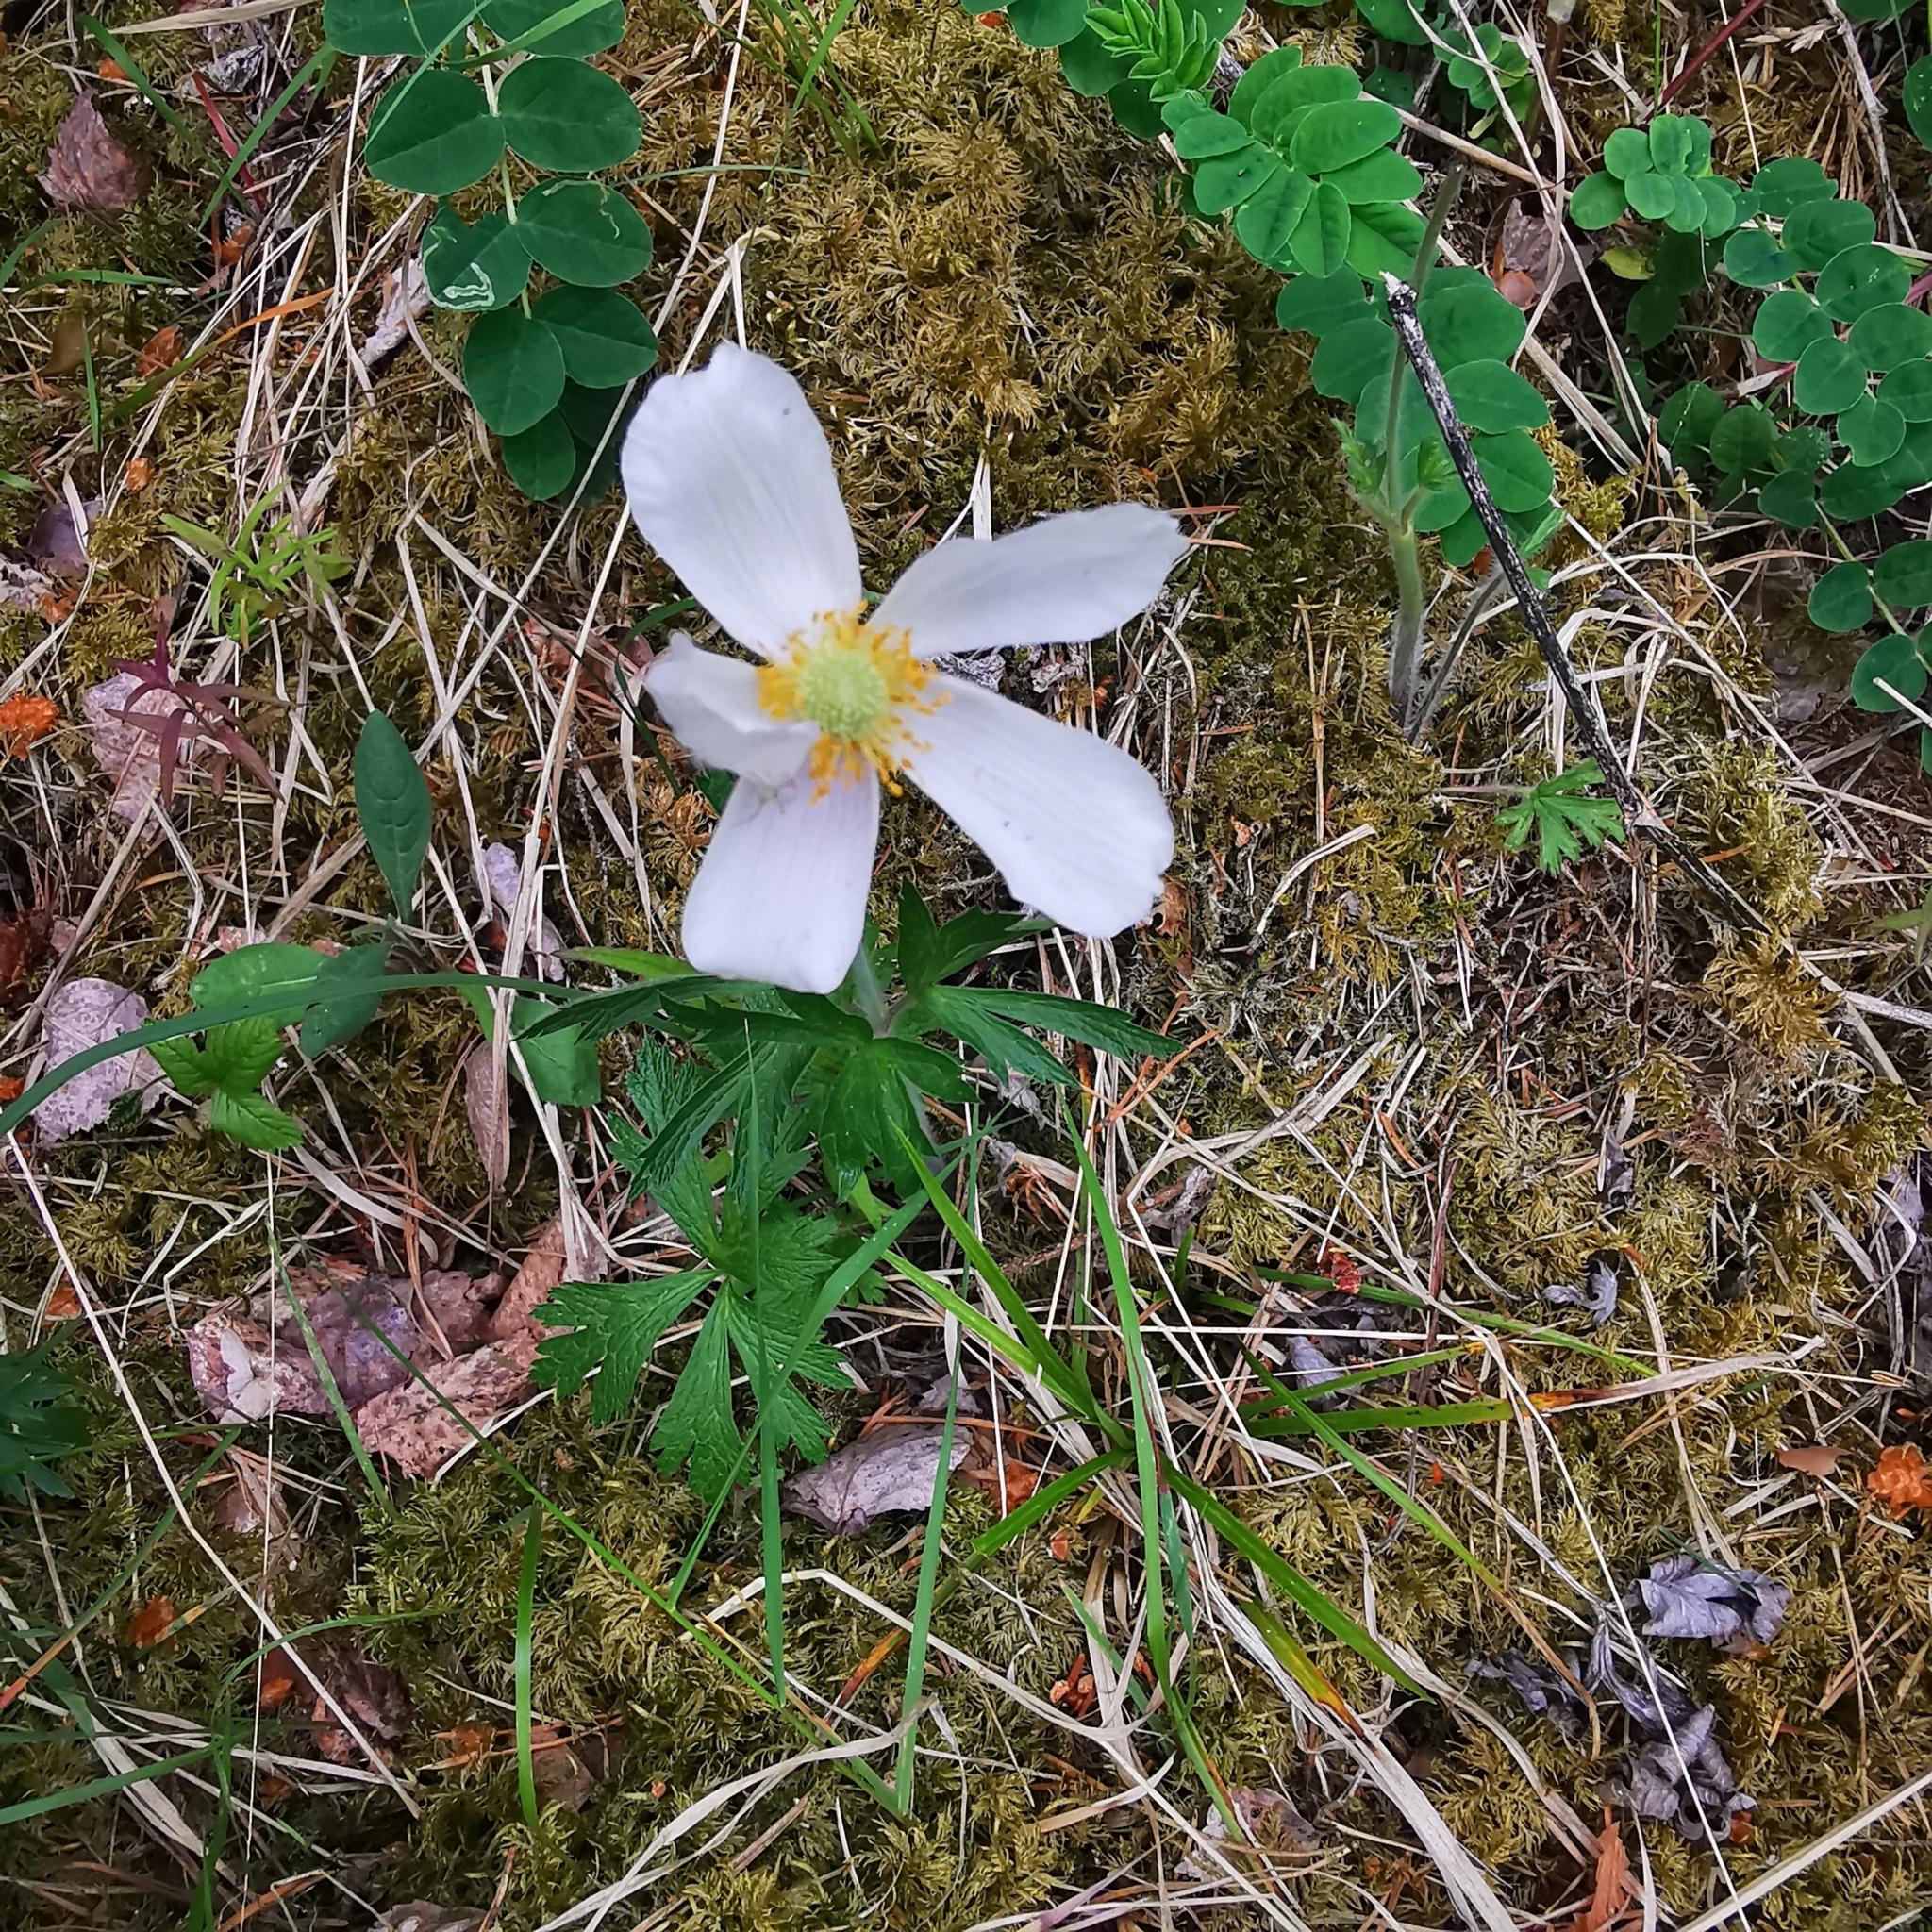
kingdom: Plantae
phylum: Tracheophyta
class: Magnoliopsida
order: Ranunculales
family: Ranunculaceae
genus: Anemone
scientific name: Anemone sylvestris
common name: Snowdrop anemone
